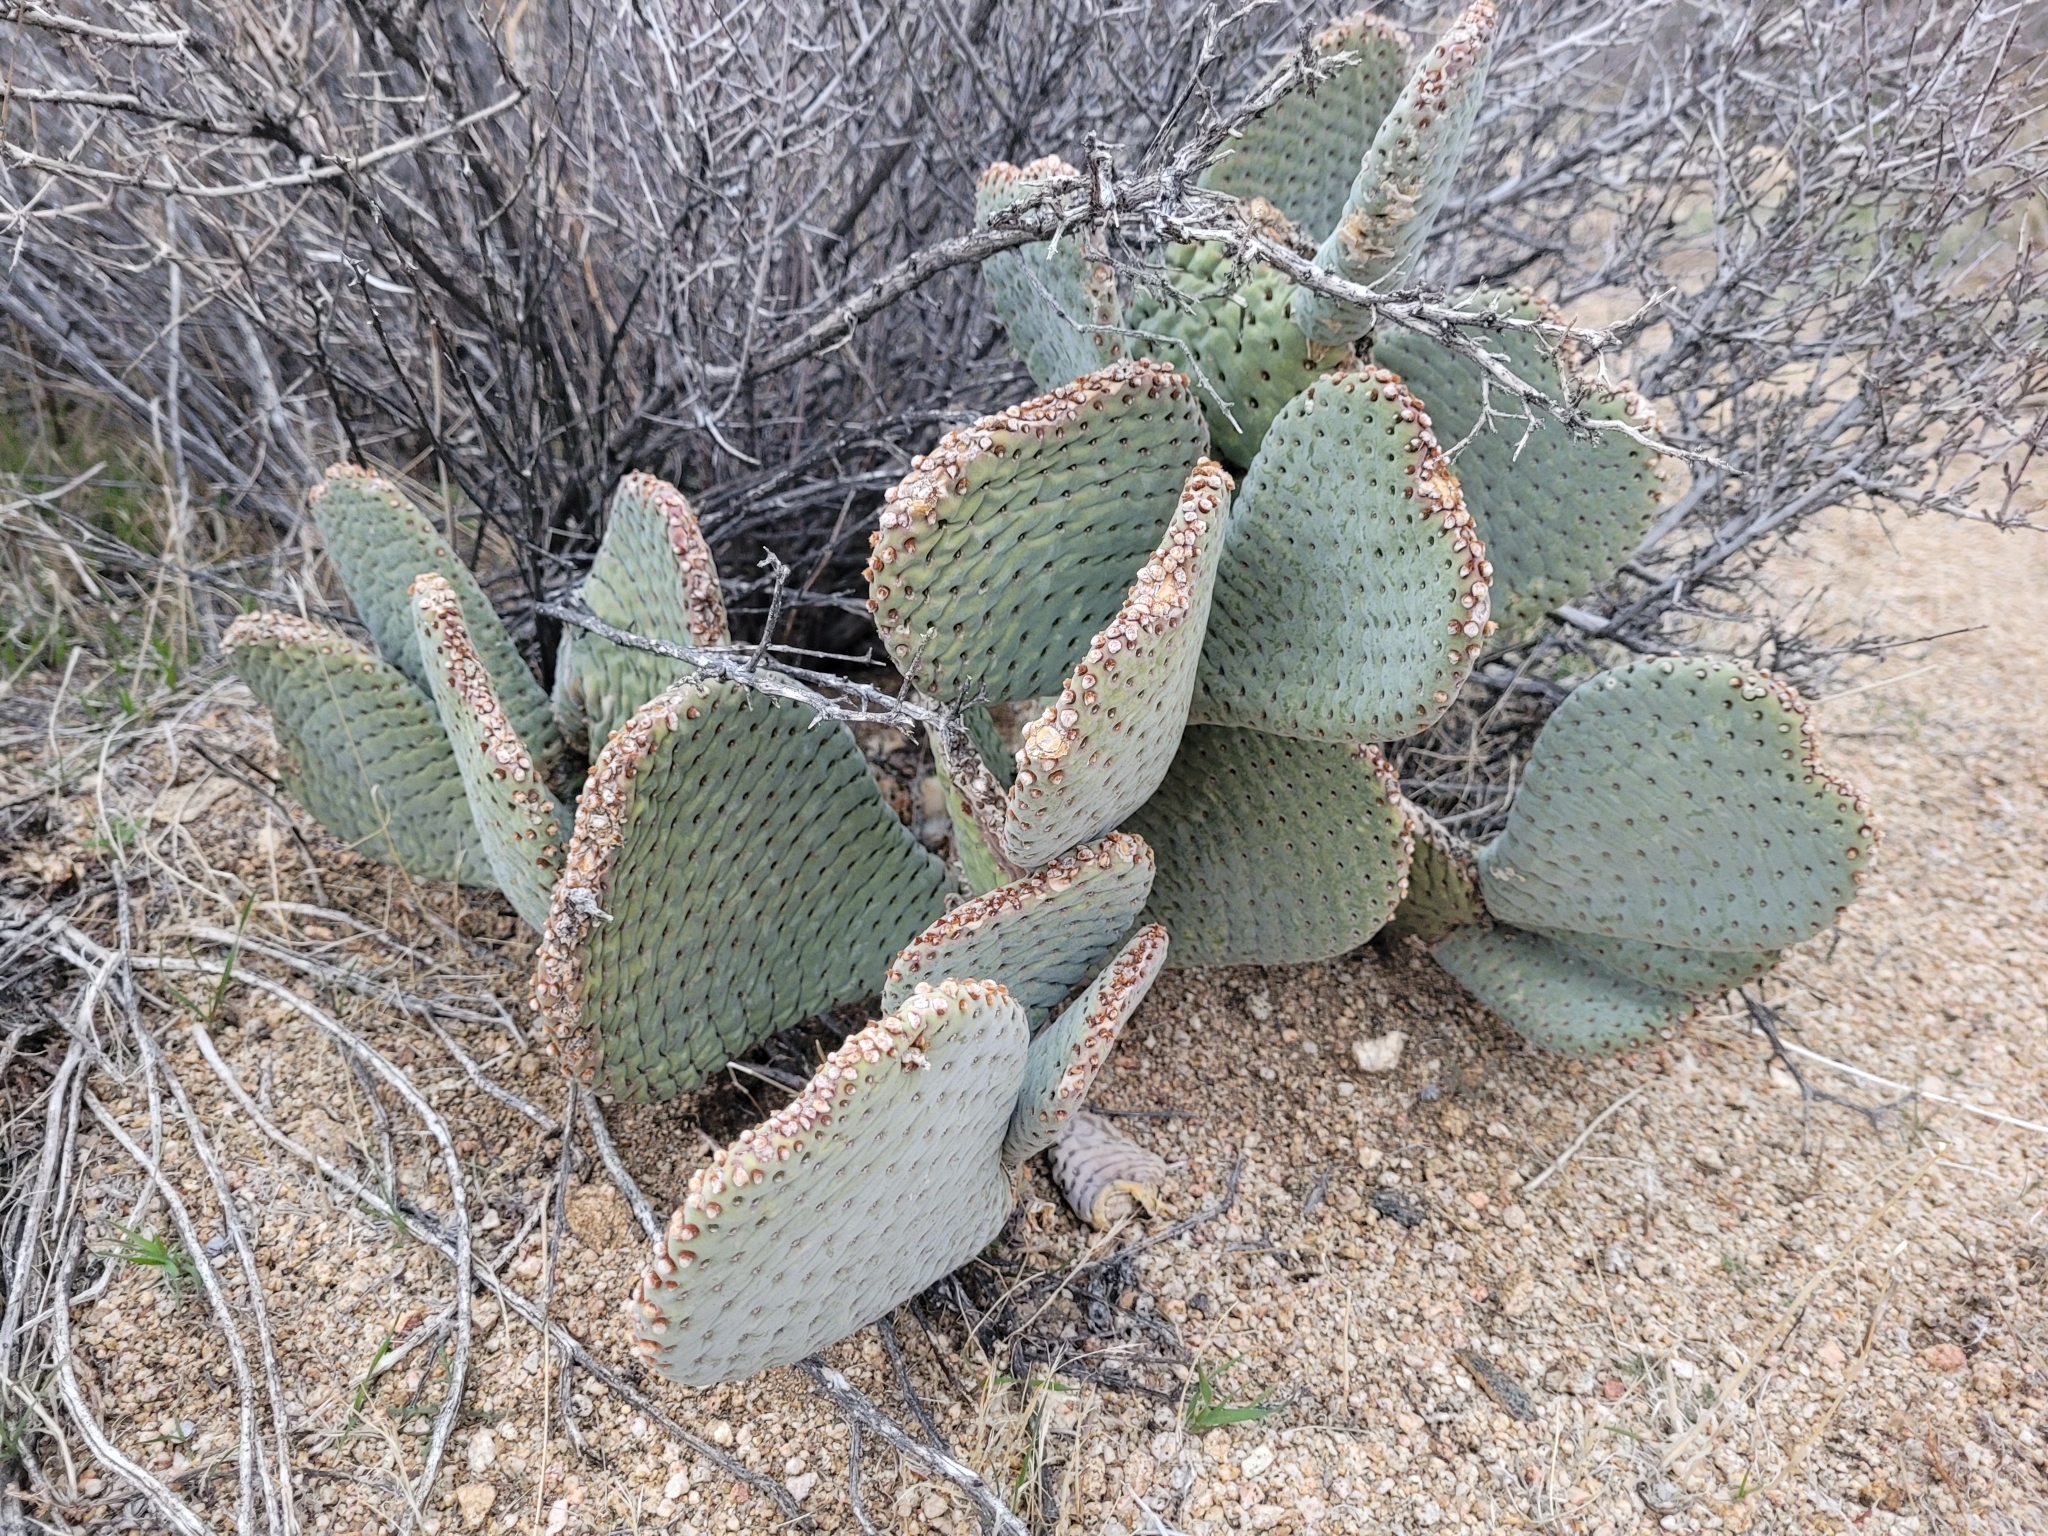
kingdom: Plantae
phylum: Tracheophyta
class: Magnoliopsida
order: Caryophyllales
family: Cactaceae
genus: Opuntia
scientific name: Opuntia basilaris
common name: Beavertail prickly-pear
